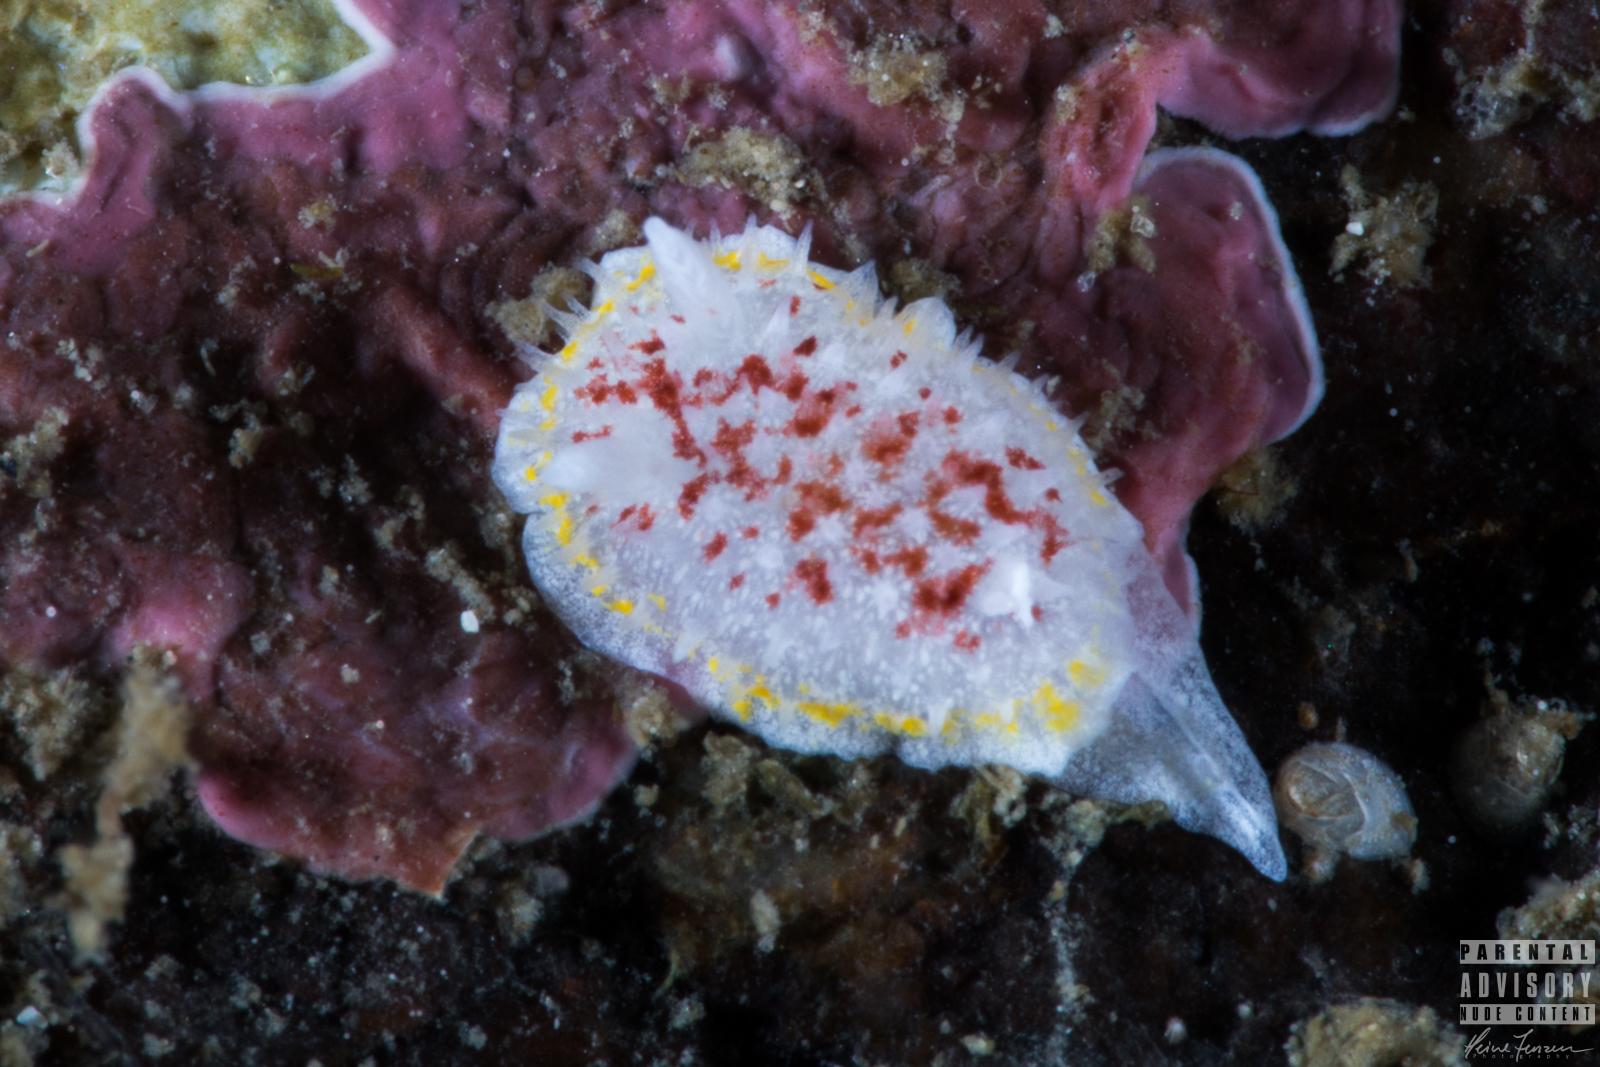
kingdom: Animalia
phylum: Mollusca
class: Gastropoda
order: Nudibranchia
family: Calycidorididae
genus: Diaphorodoris
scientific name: Diaphorodoris luteocincta
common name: Fried egg nudibranch
